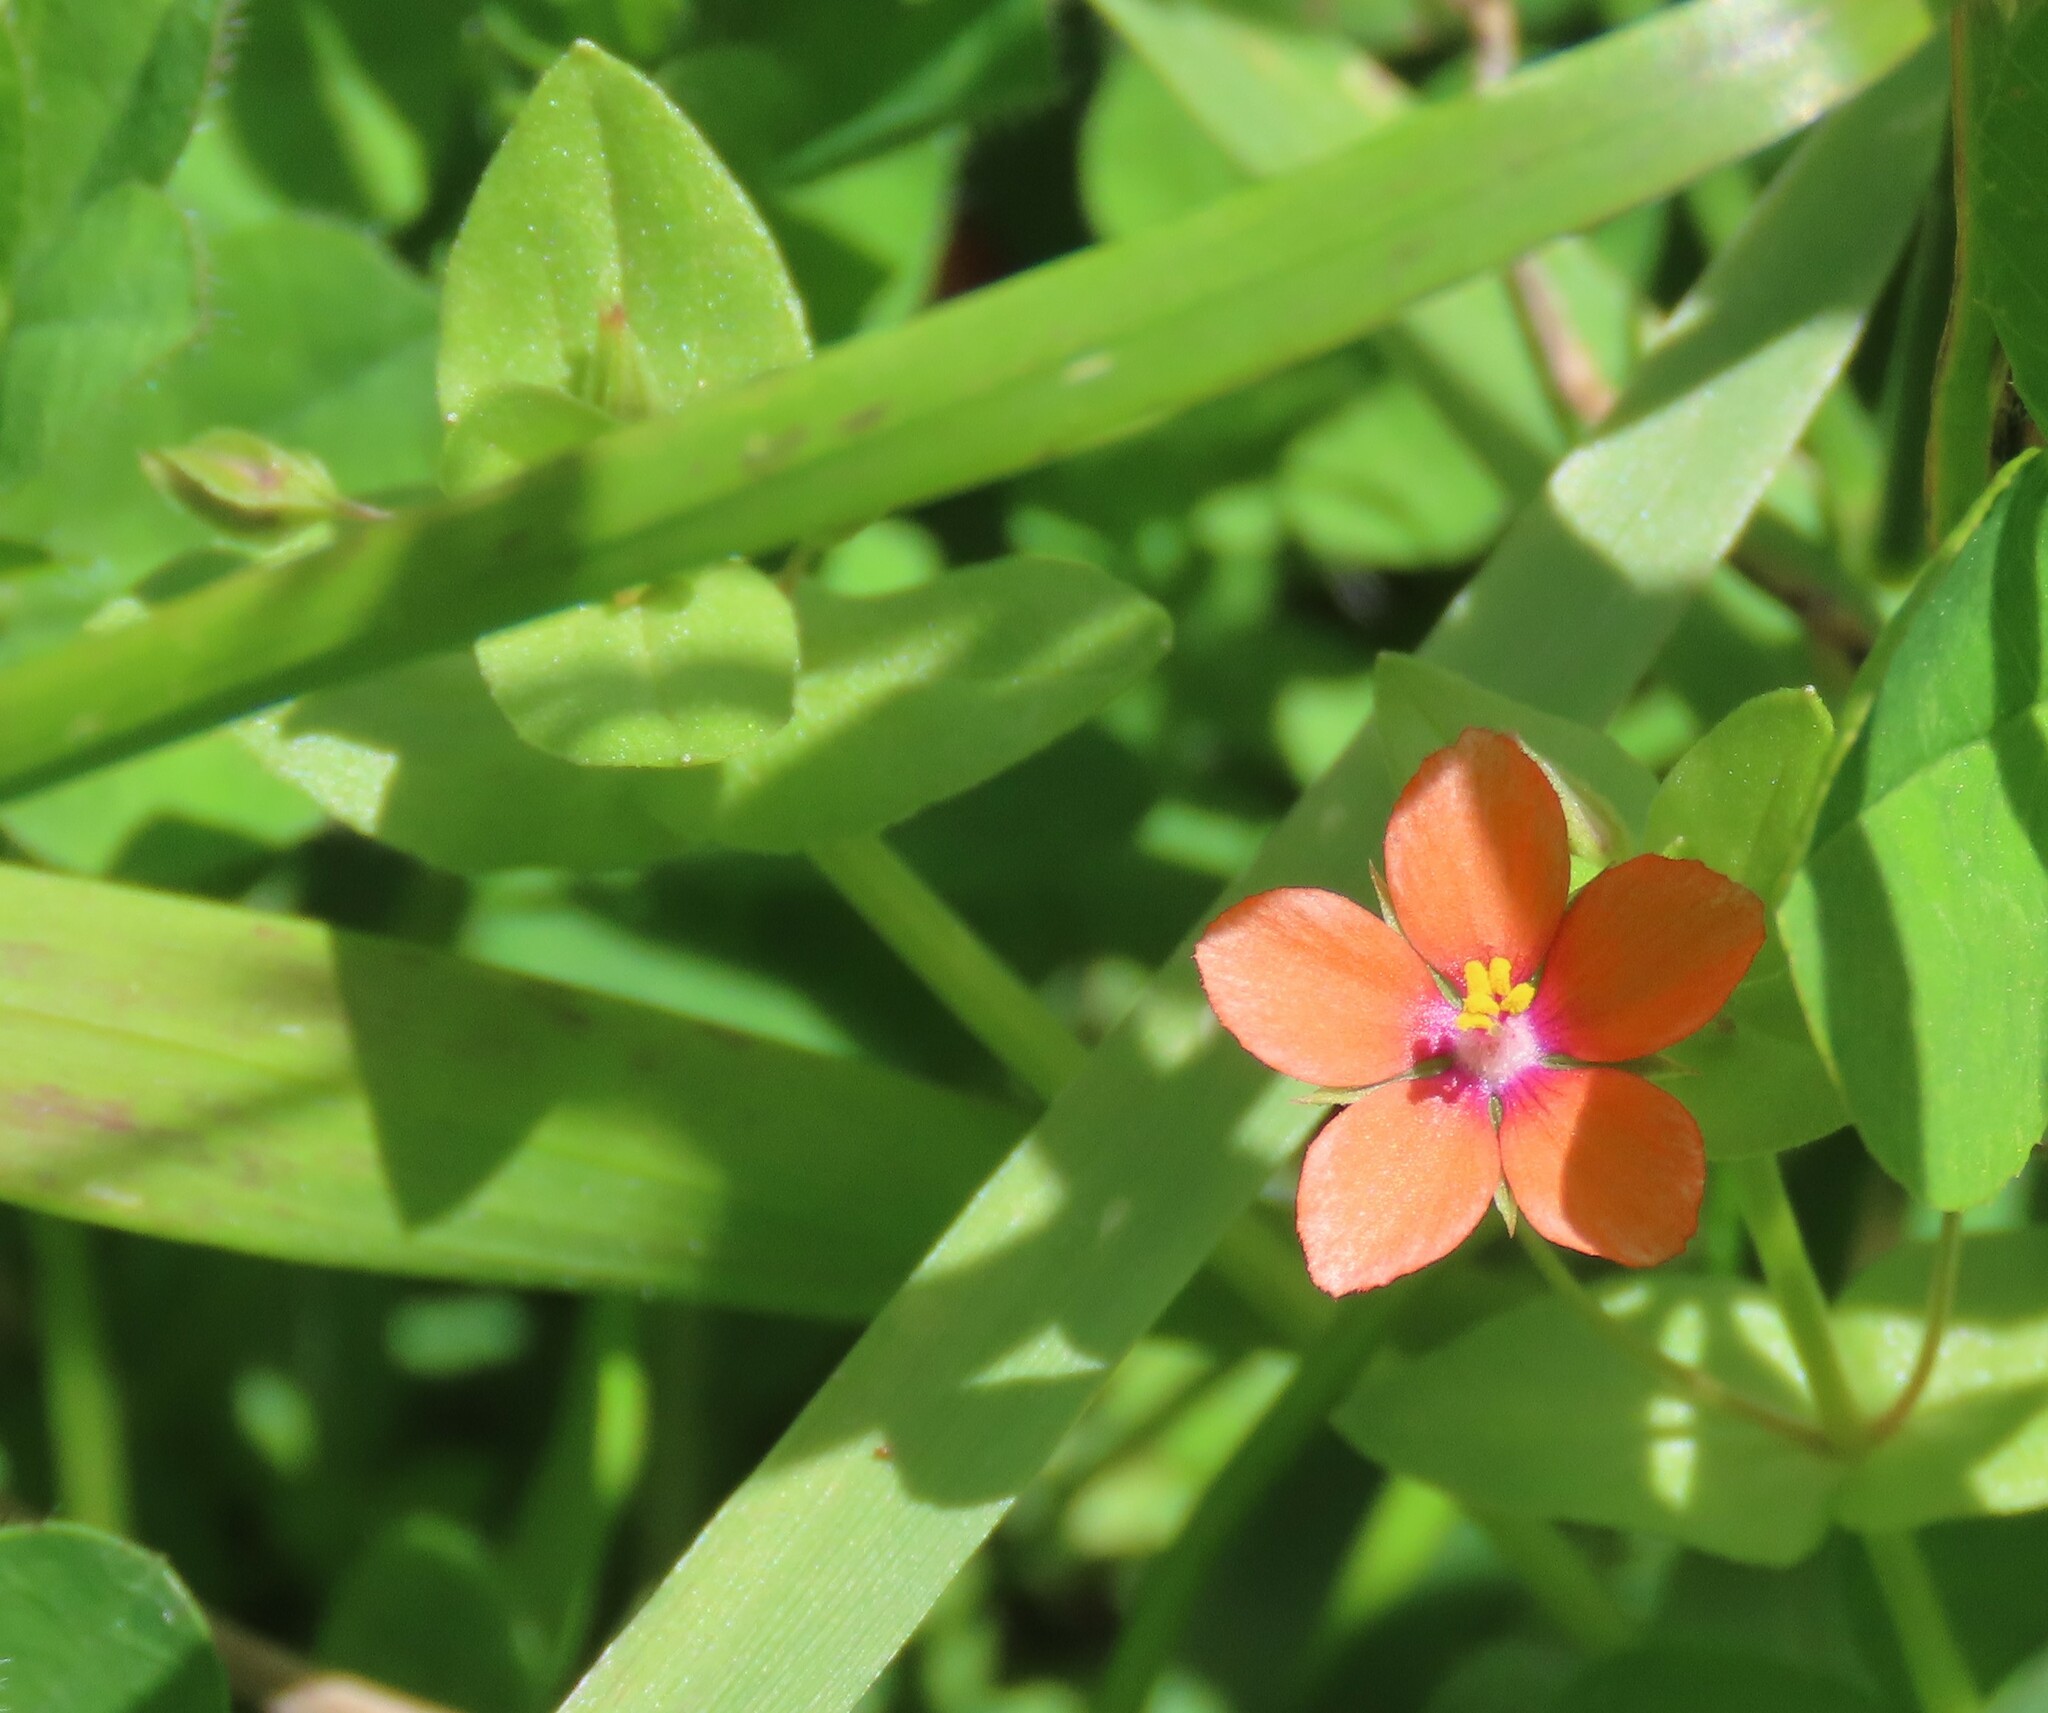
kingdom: Plantae
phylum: Tracheophyta
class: Magnoliopsida
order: Ericales
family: Primulaceae
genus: Lysimachia
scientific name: Lysimachia arvensis
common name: Scarlet pimpernel
